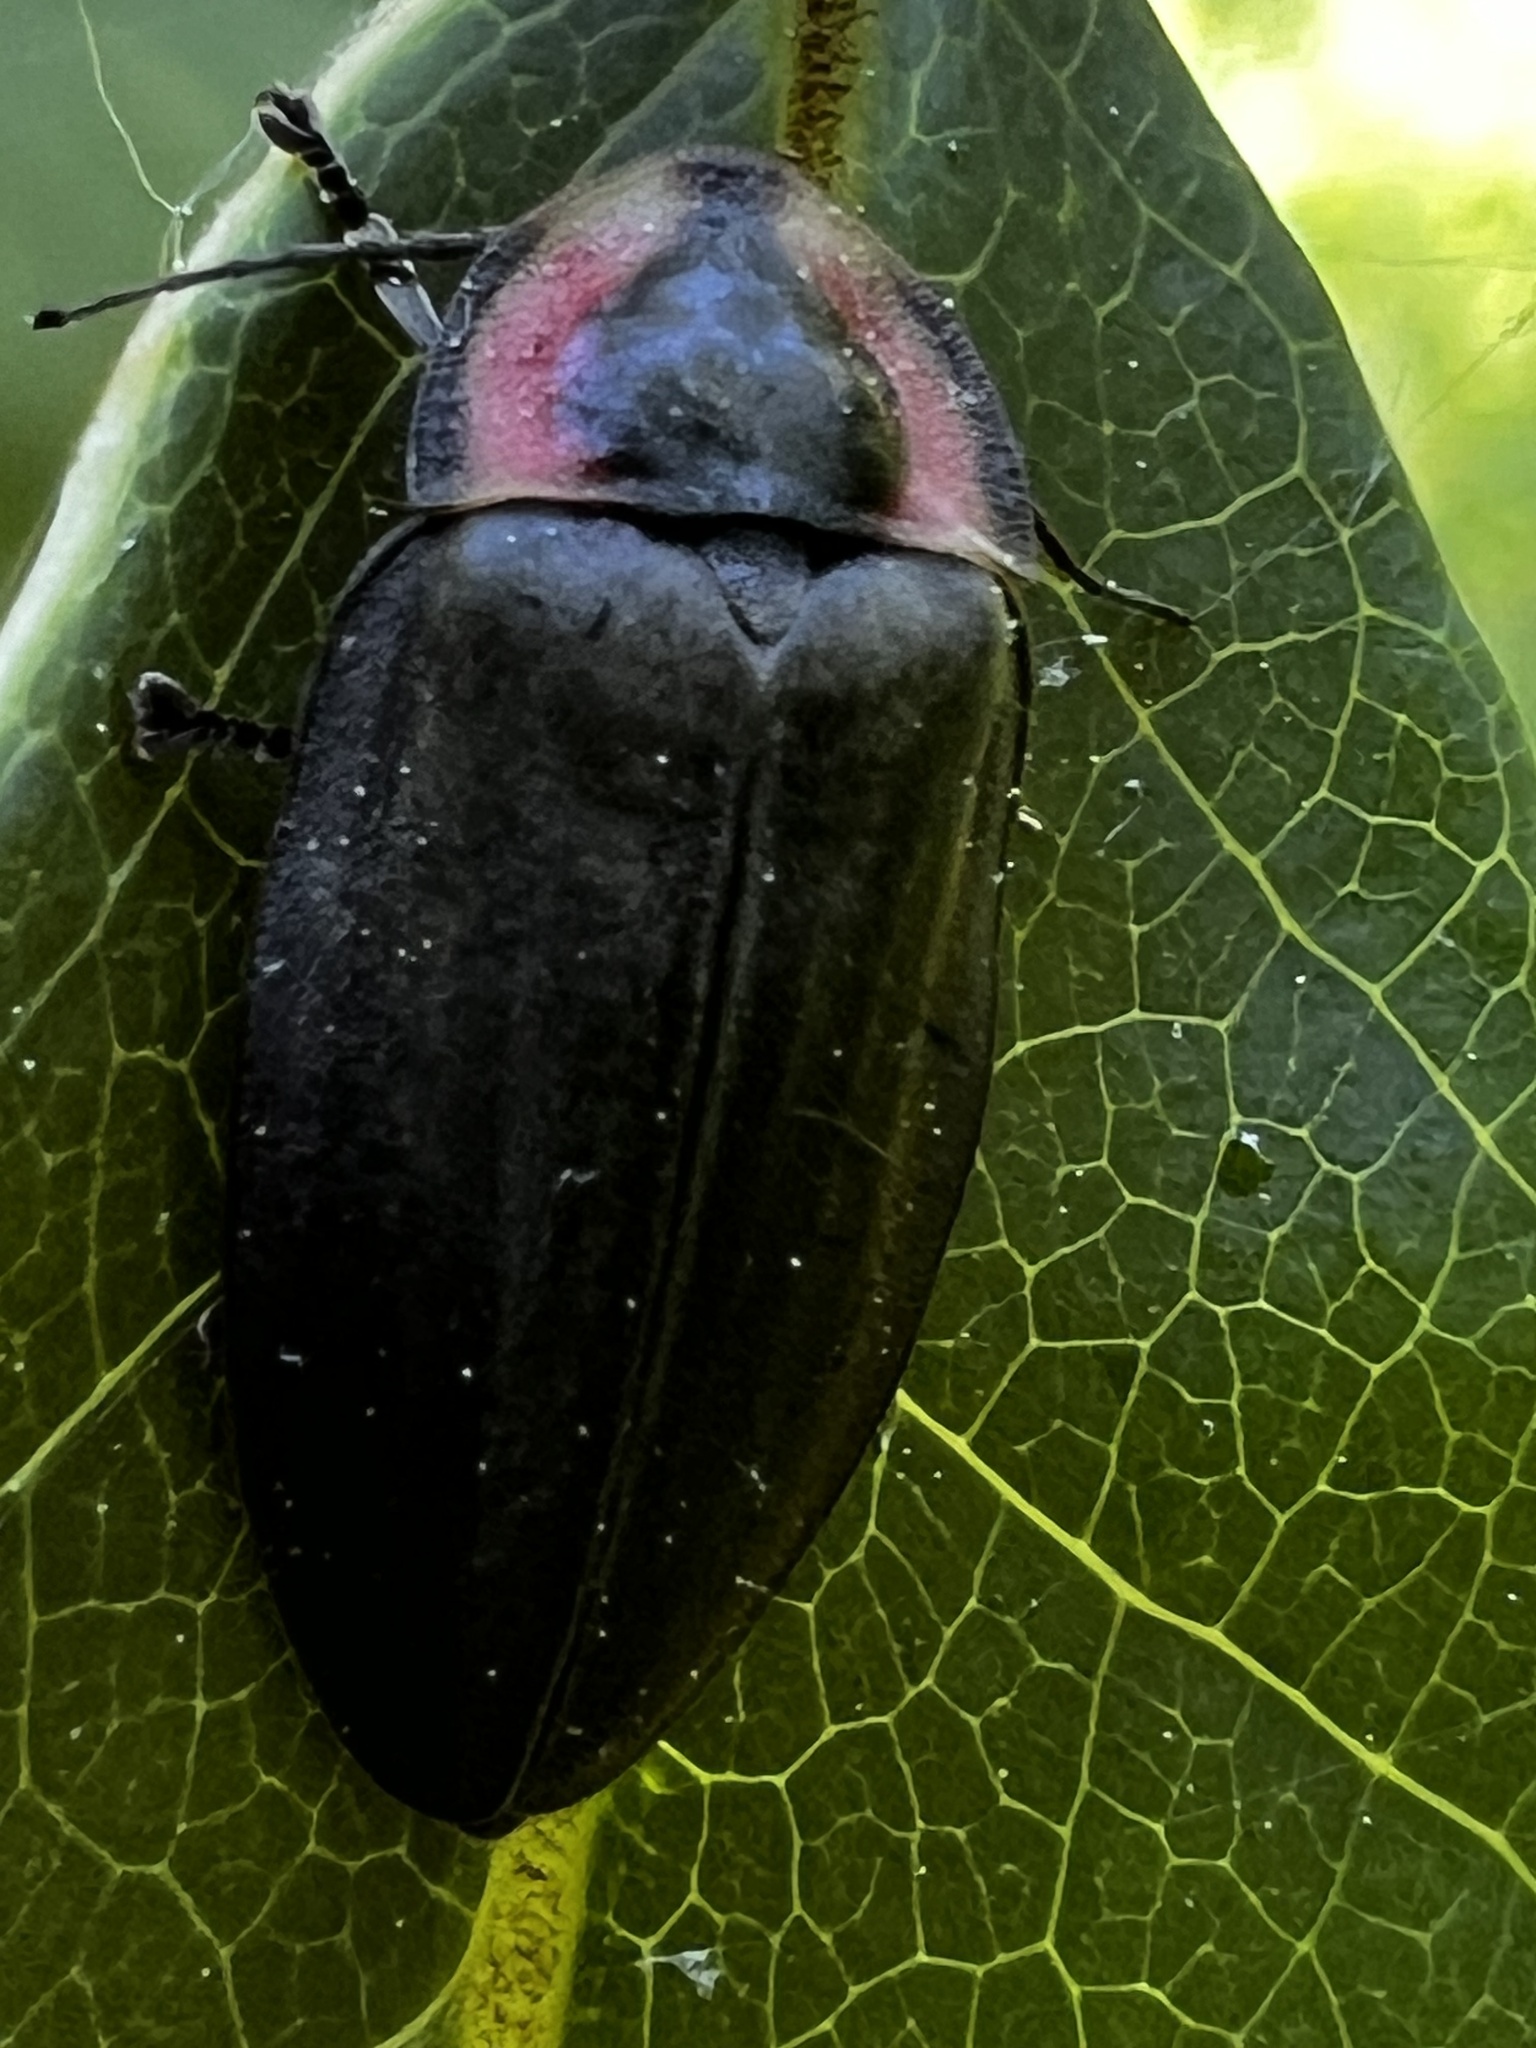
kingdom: Animalia
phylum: Arthropoda
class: Insecta
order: Coleoptera
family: Lampyridae
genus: Photinus
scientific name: Photinus corrusca
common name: Winter firefly
